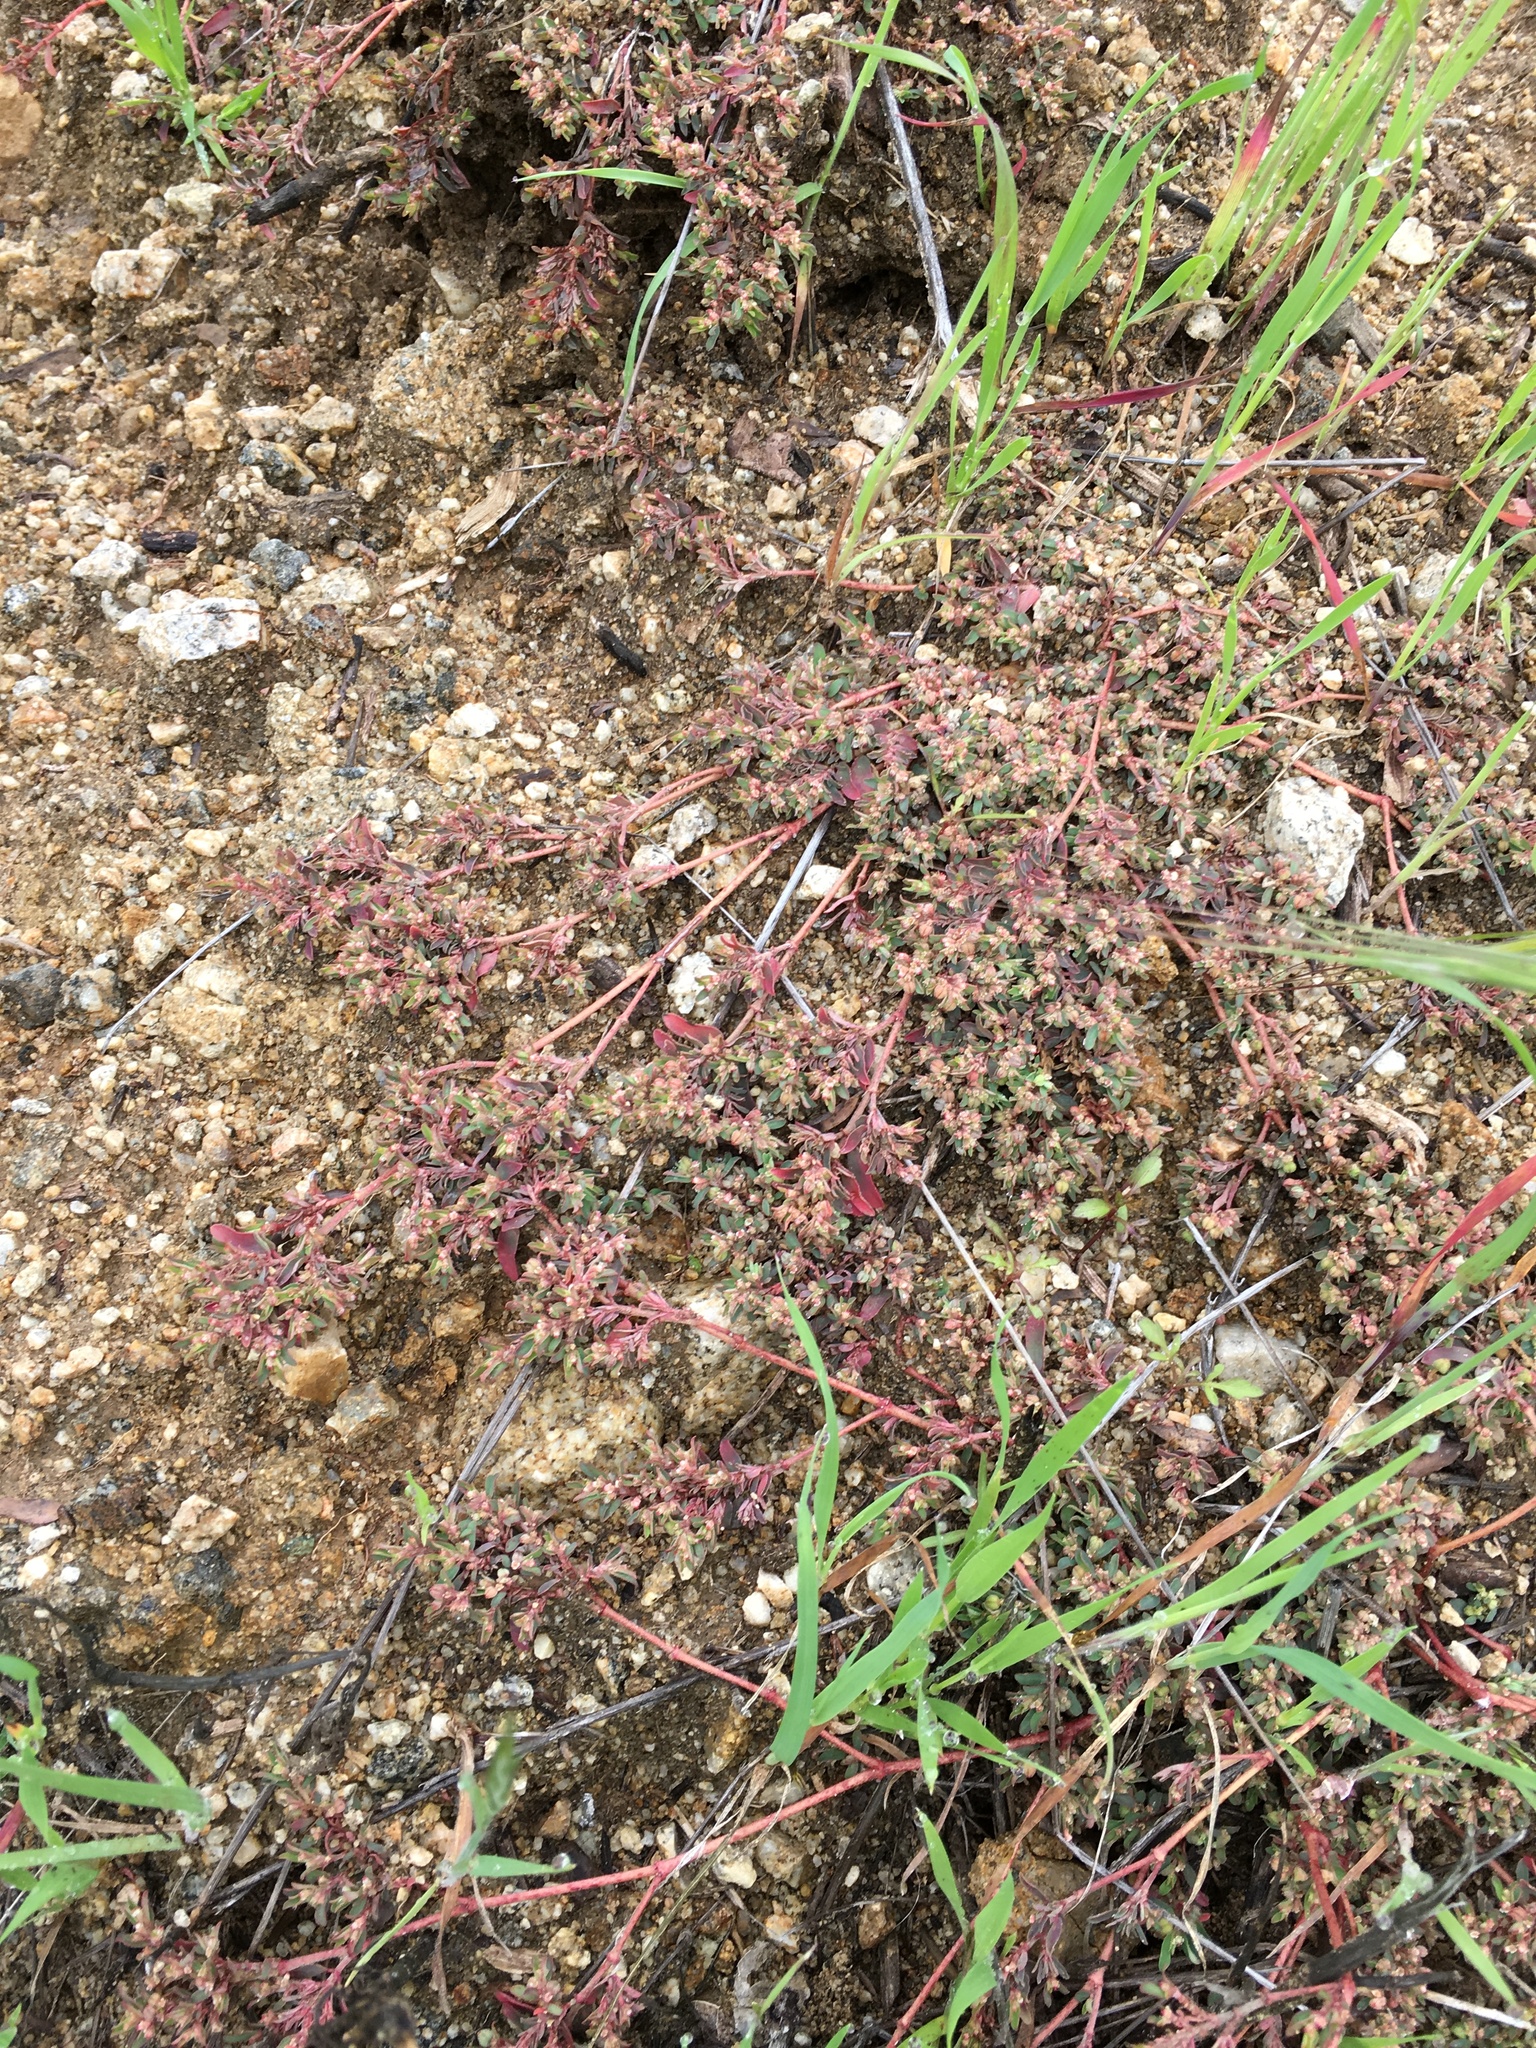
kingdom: Plantae
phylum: Tracheophyta
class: Magnoliopsida
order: Malpighiales
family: Euphorbiaceae
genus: Euphorbia
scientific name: Euphorbia maculata
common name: Spotted spurge
